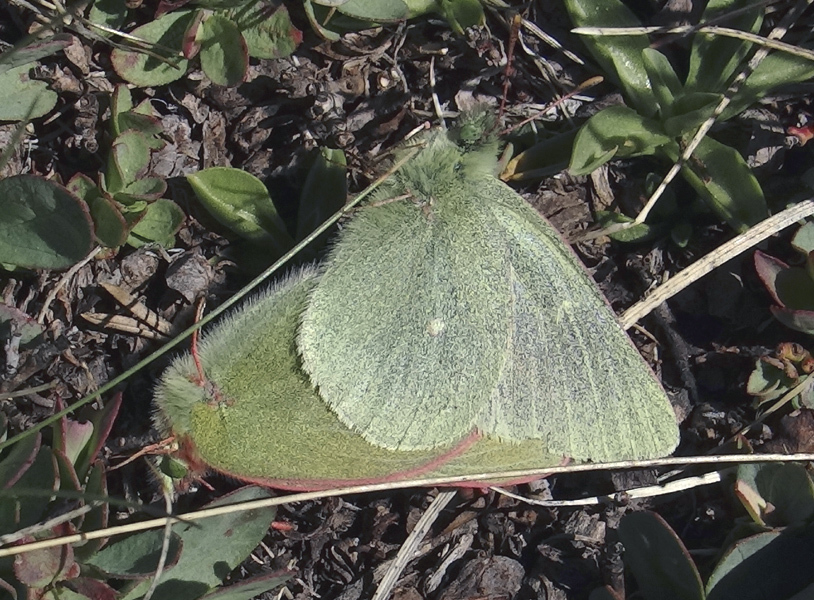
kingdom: Animalia
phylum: Arthropoda
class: Insecta
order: Lepidoptera
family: Pieridae
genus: Colias
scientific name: Colias behrii
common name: Behr's sulphur
